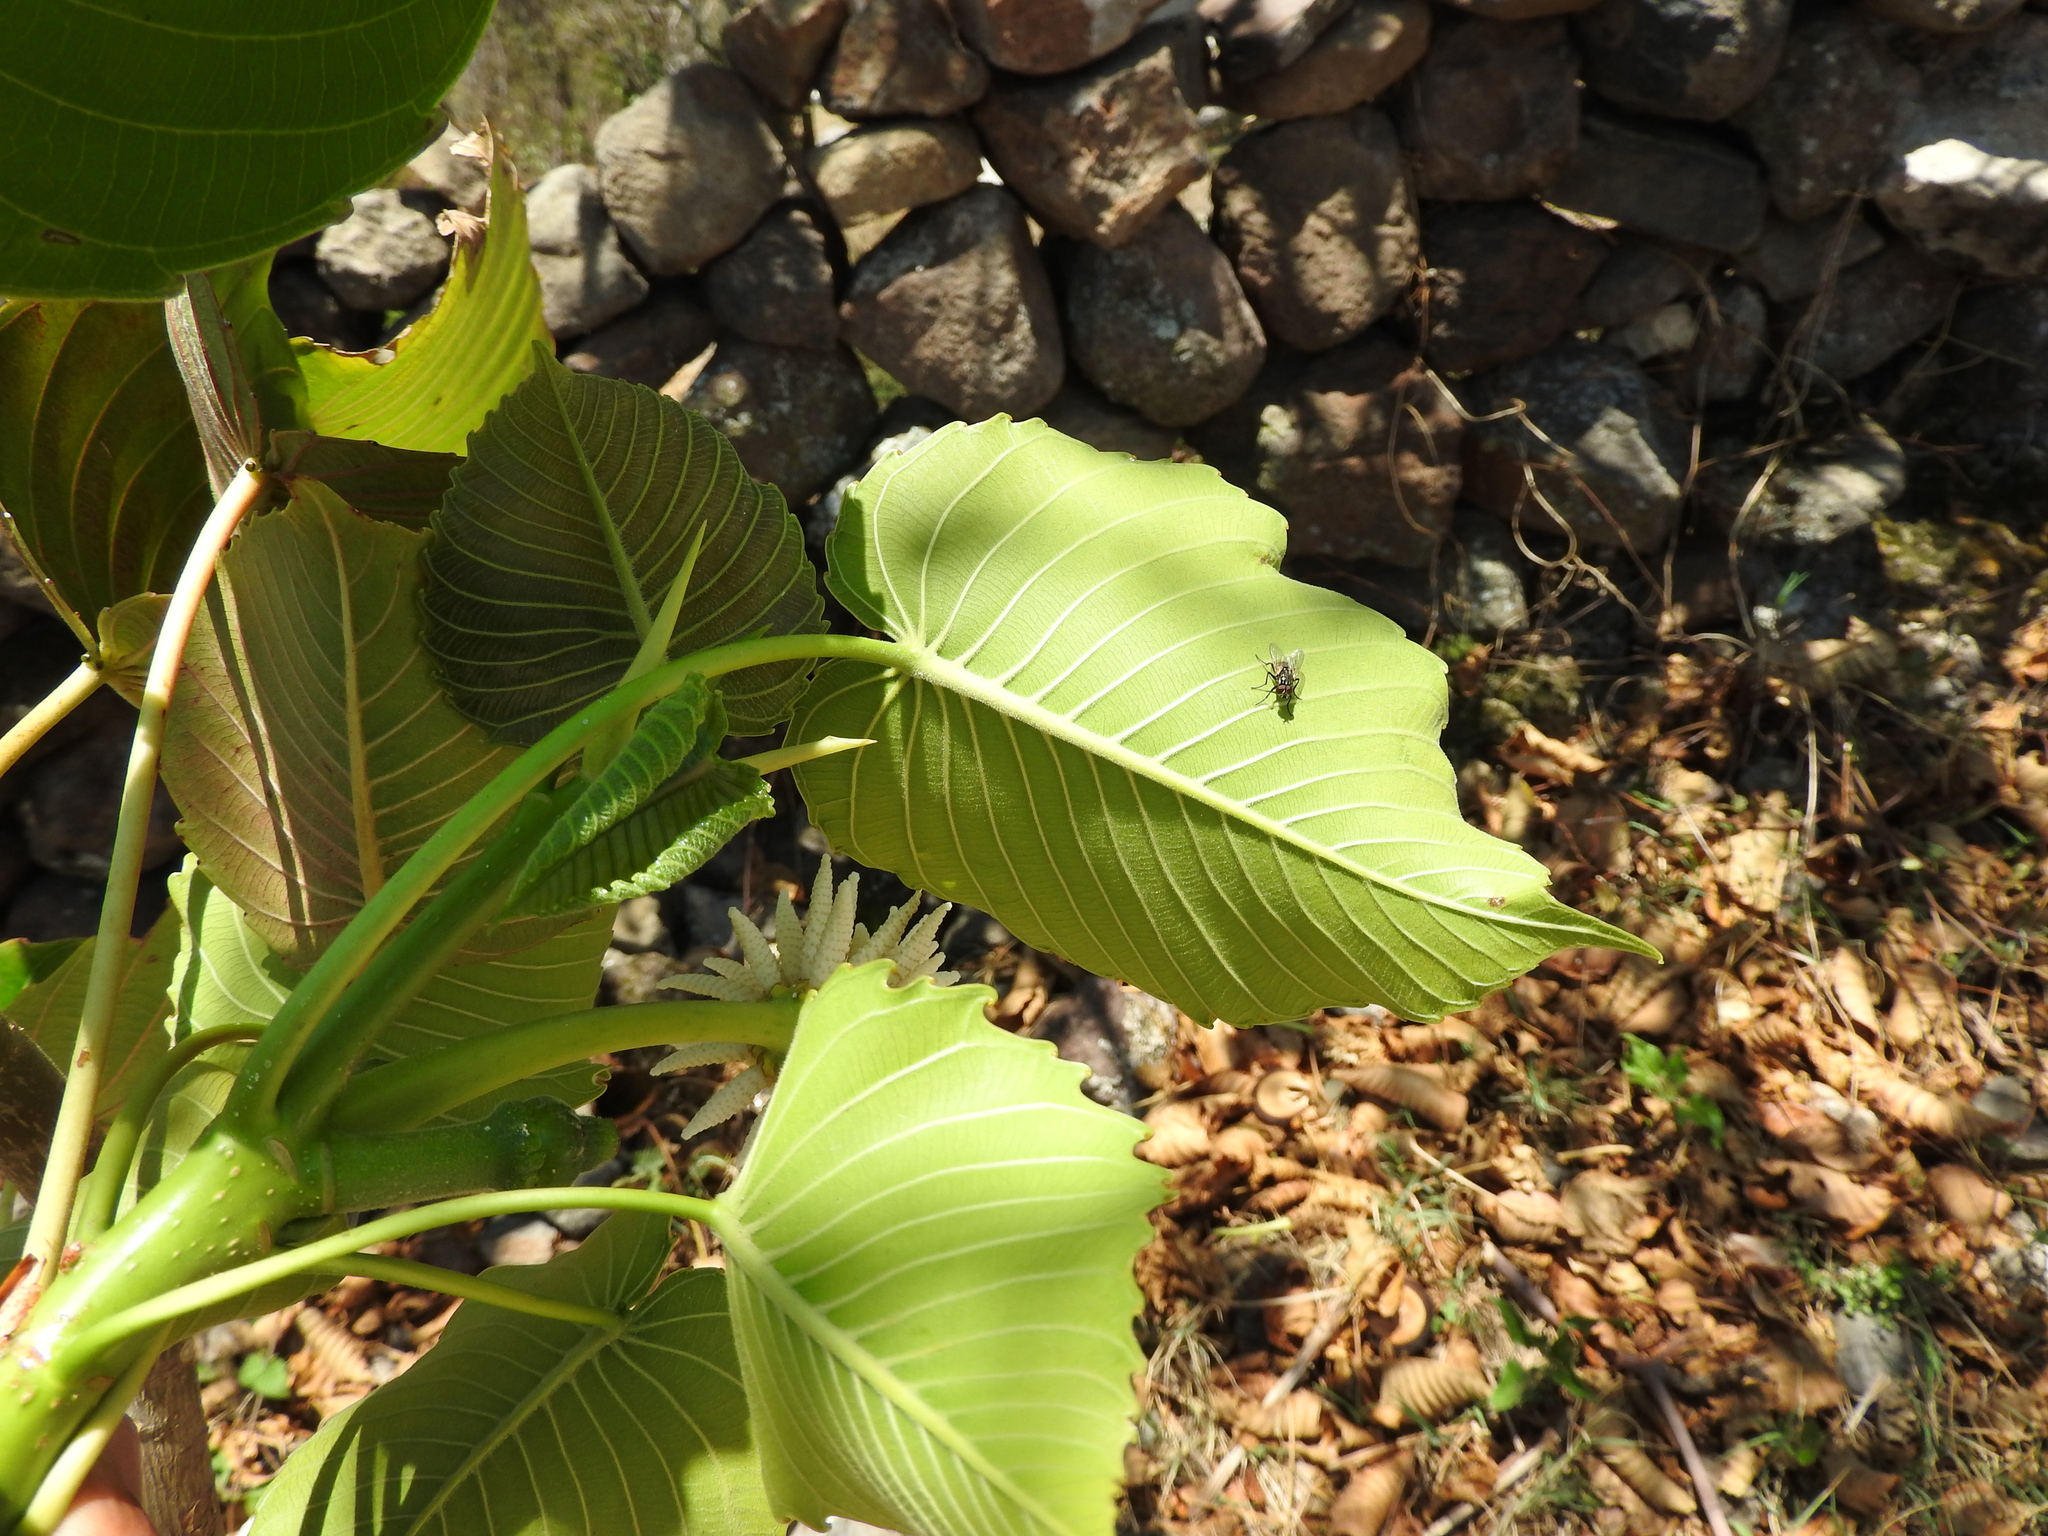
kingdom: Plantae
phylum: Tracheophyta
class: Magnoliopsida
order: Malpighiales
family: Euphorbiaceae
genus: Hura
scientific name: Hura polyandra
